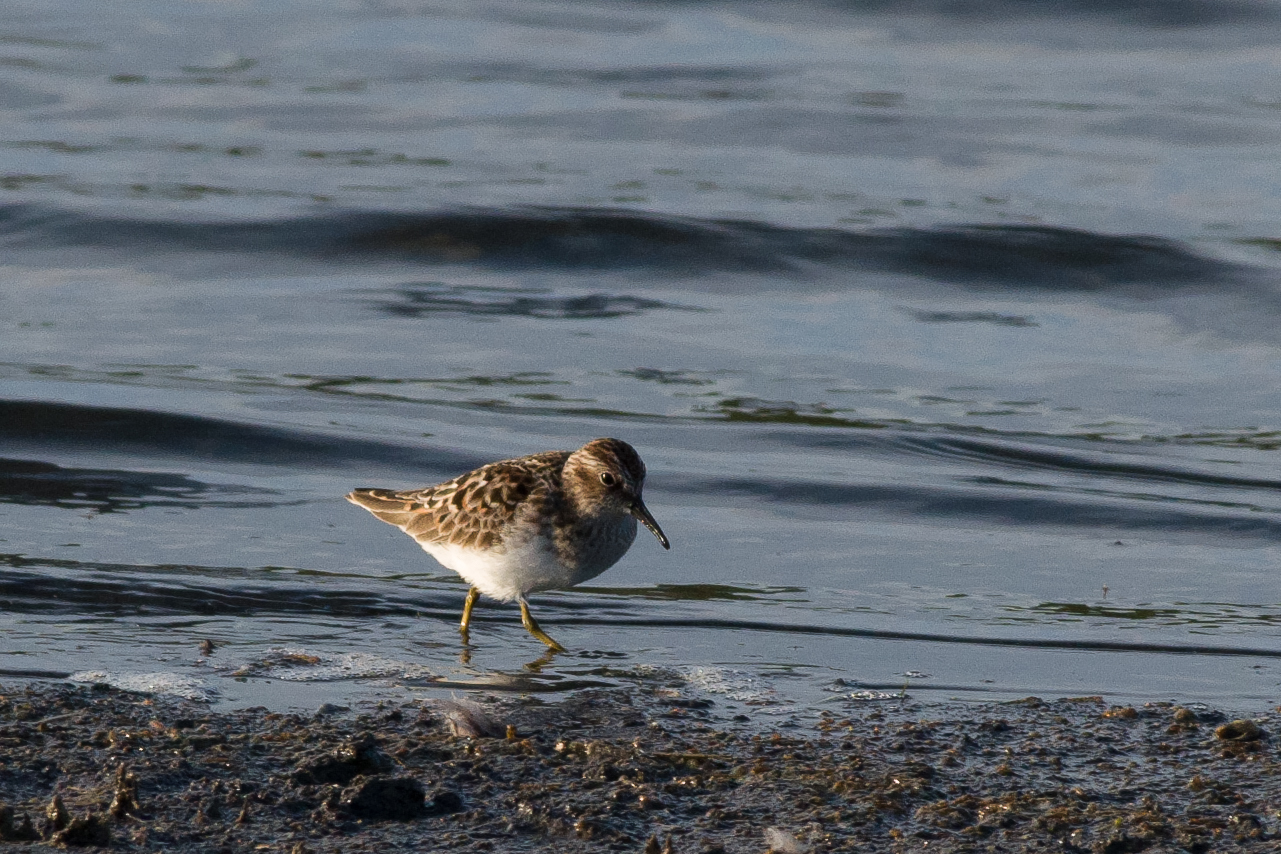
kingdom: Animalia
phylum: Chordata
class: Aves
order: Charadriiformes
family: Scolopacidae
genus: Calidris
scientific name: Calidris minutilla
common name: Least sandpiper
